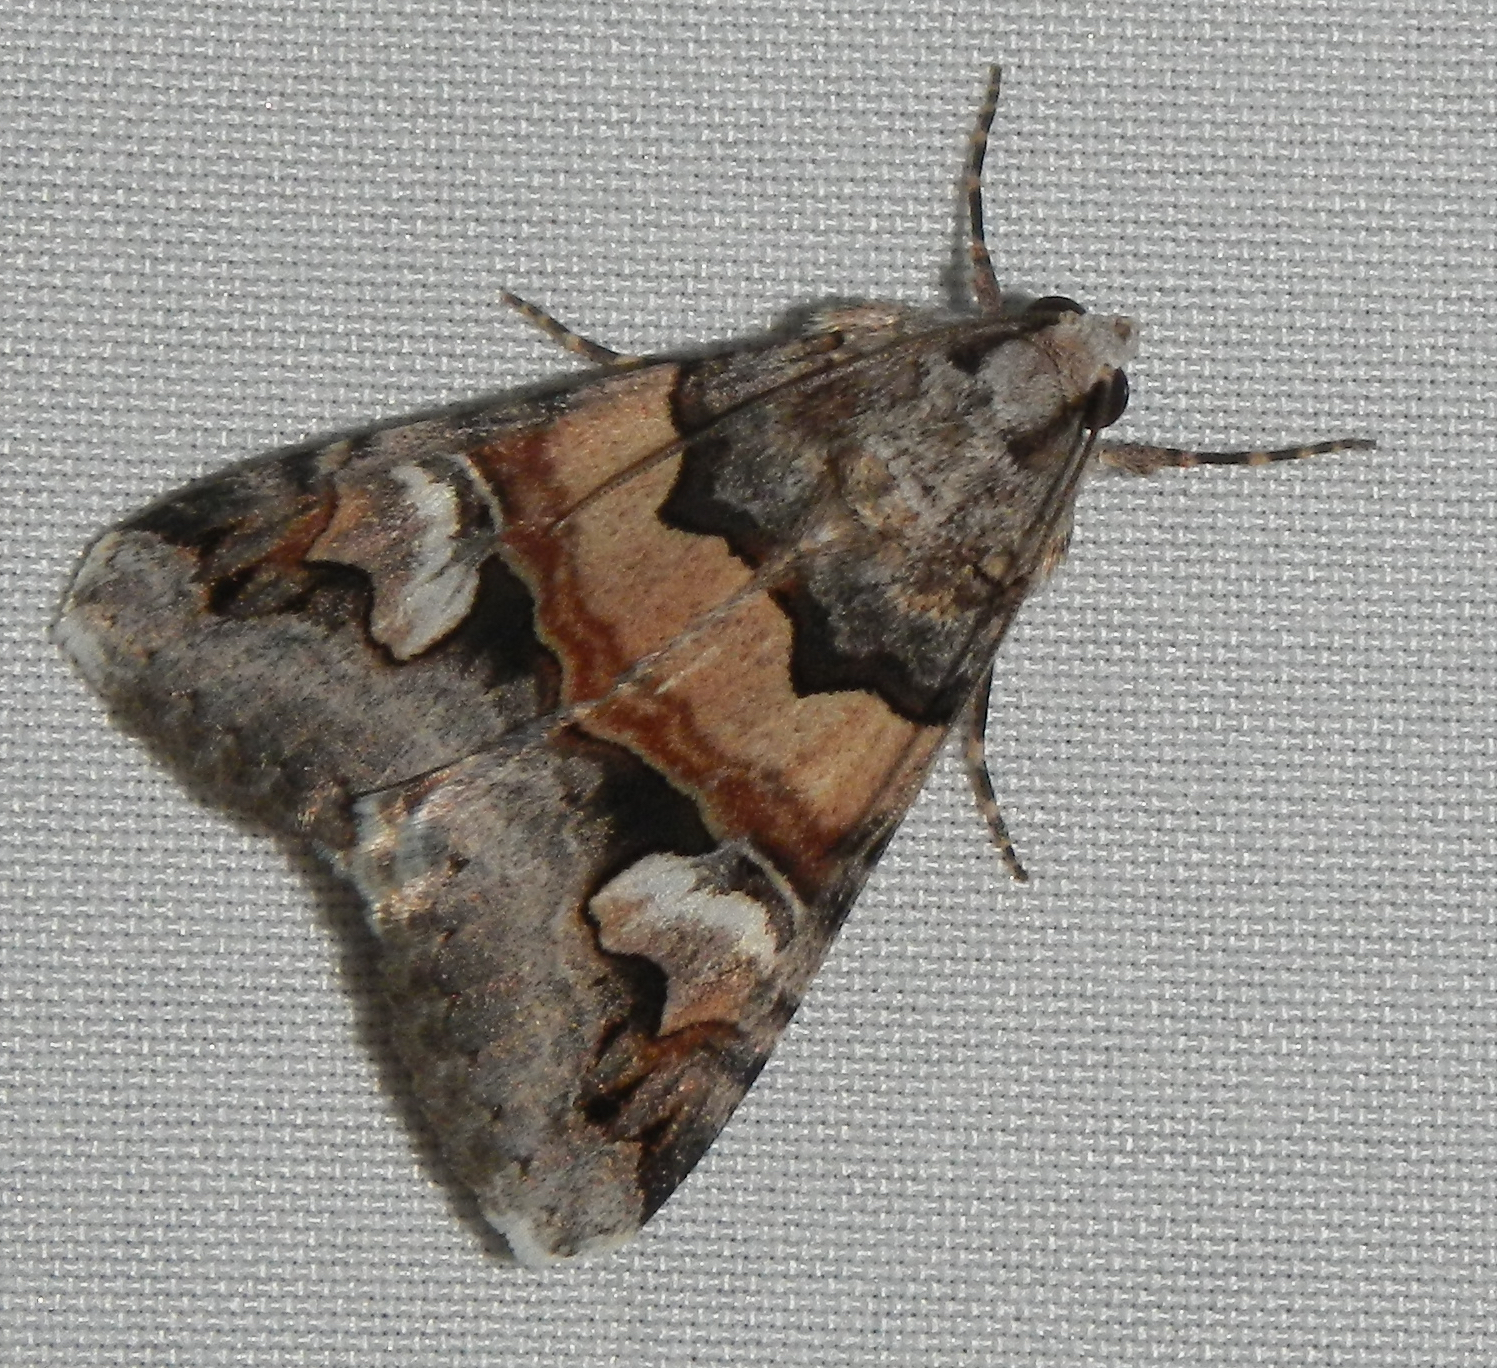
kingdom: Animalia
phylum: Arthropoda
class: Insecta
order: Lepidoptera
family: Erebidae
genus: Drasteria
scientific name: Drasteria fumosa
